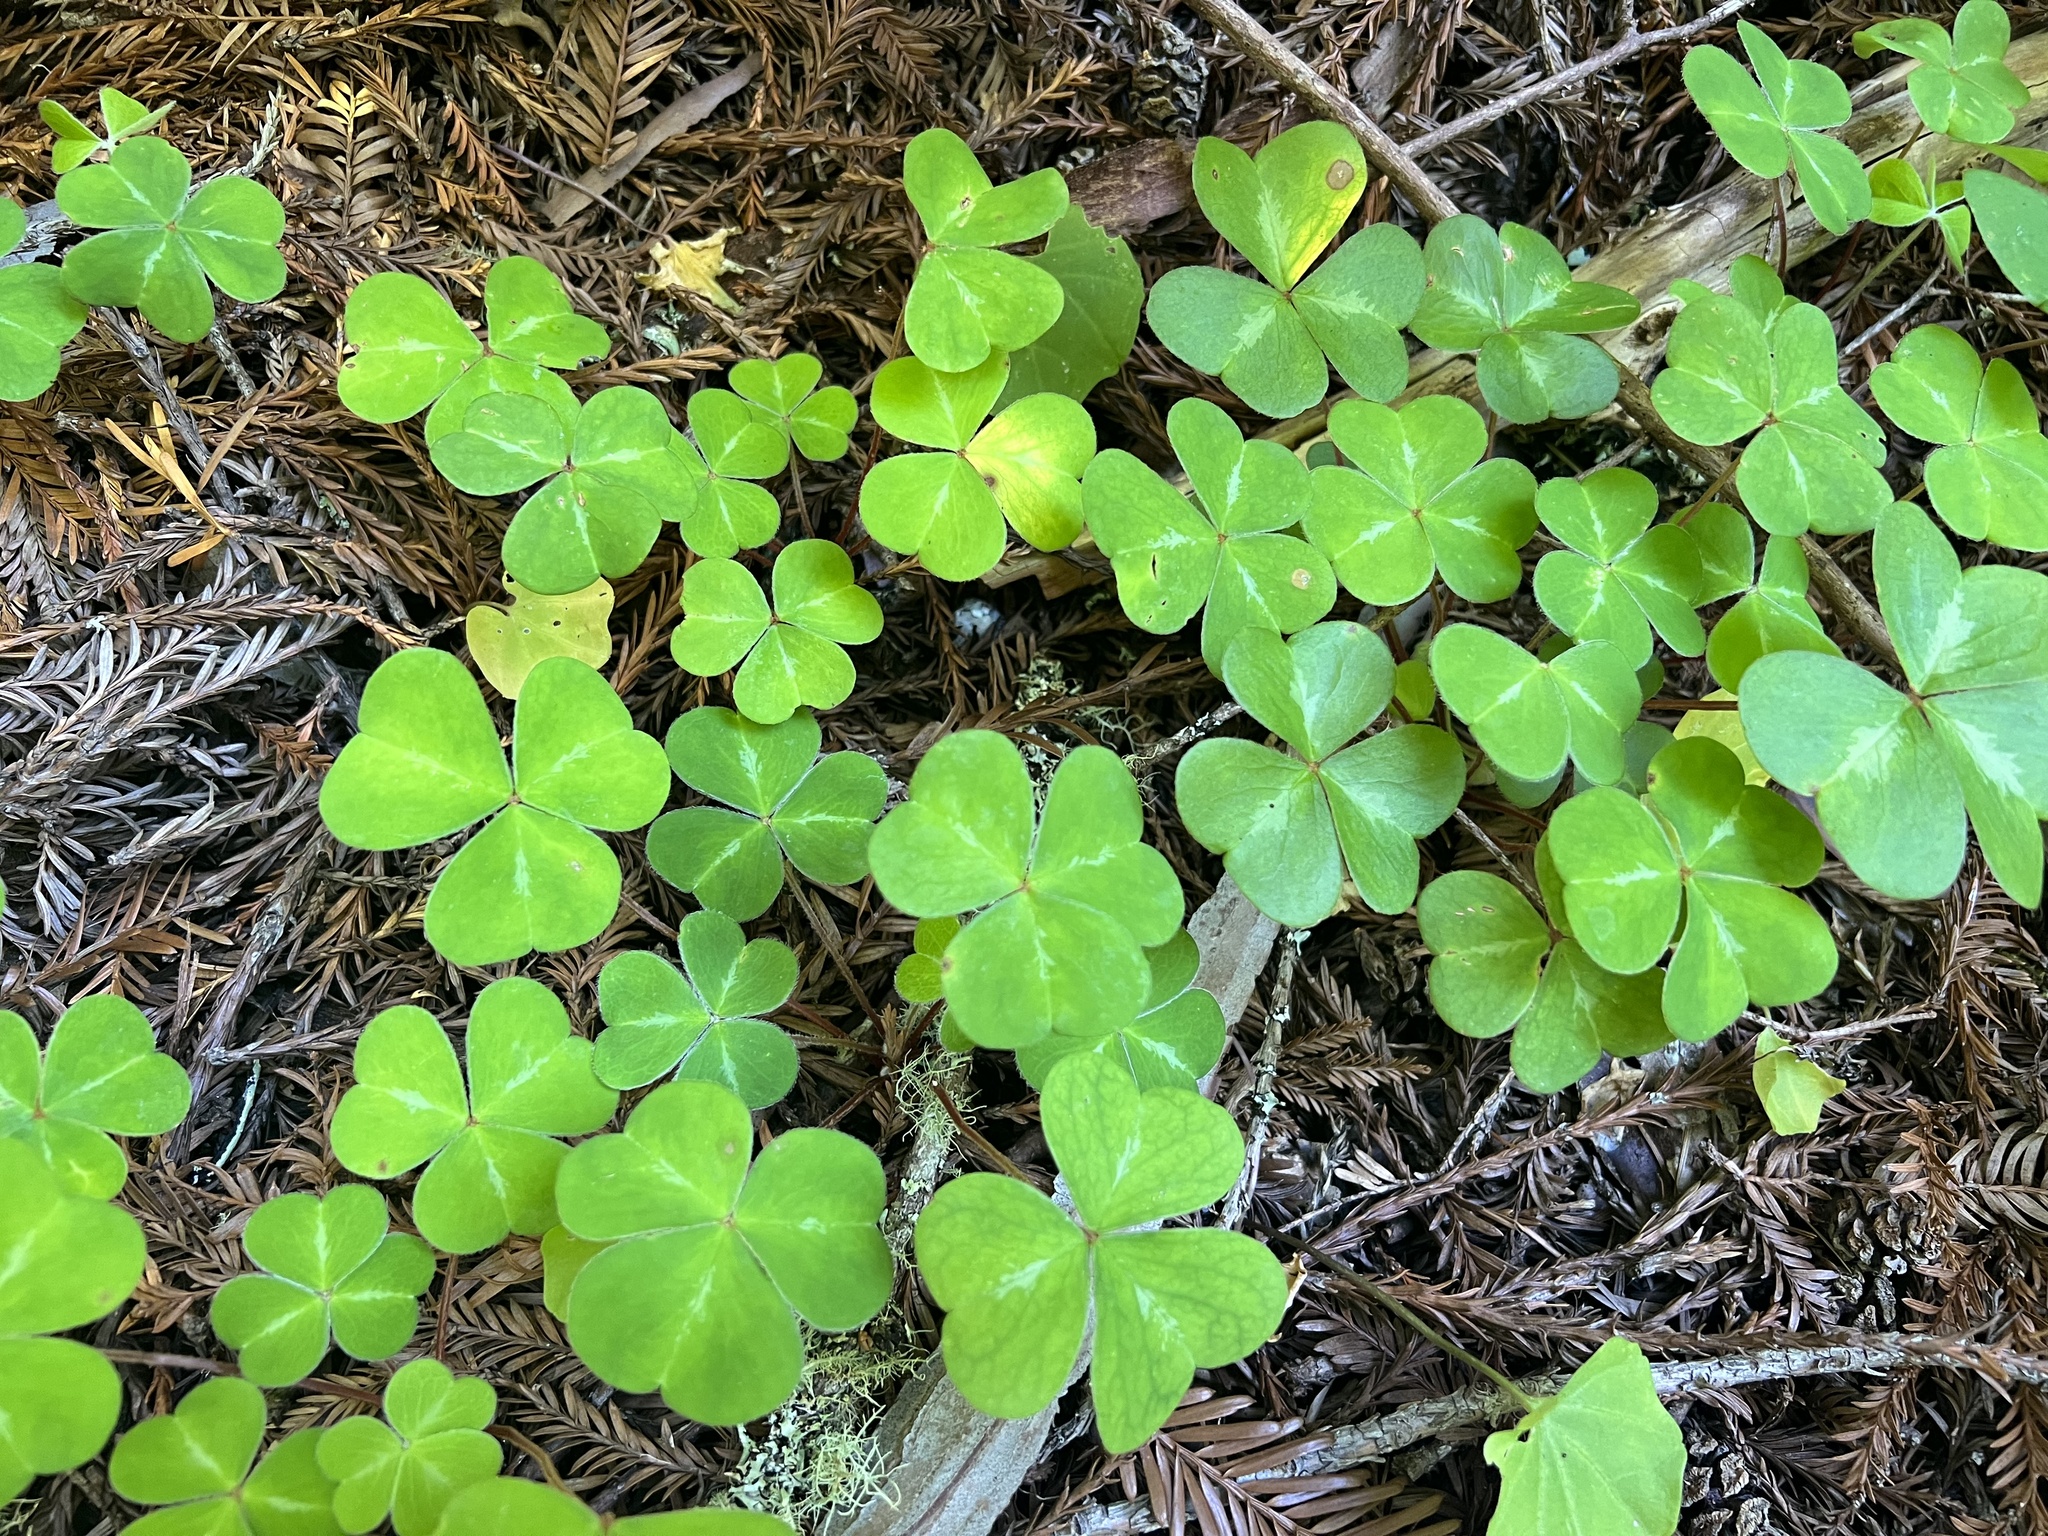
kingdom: Plantae
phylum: Tracheophyta
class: Magnoliopsida
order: Oxalidales
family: Oxalidaceae
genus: Oxalis
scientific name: Oxalis oregana
